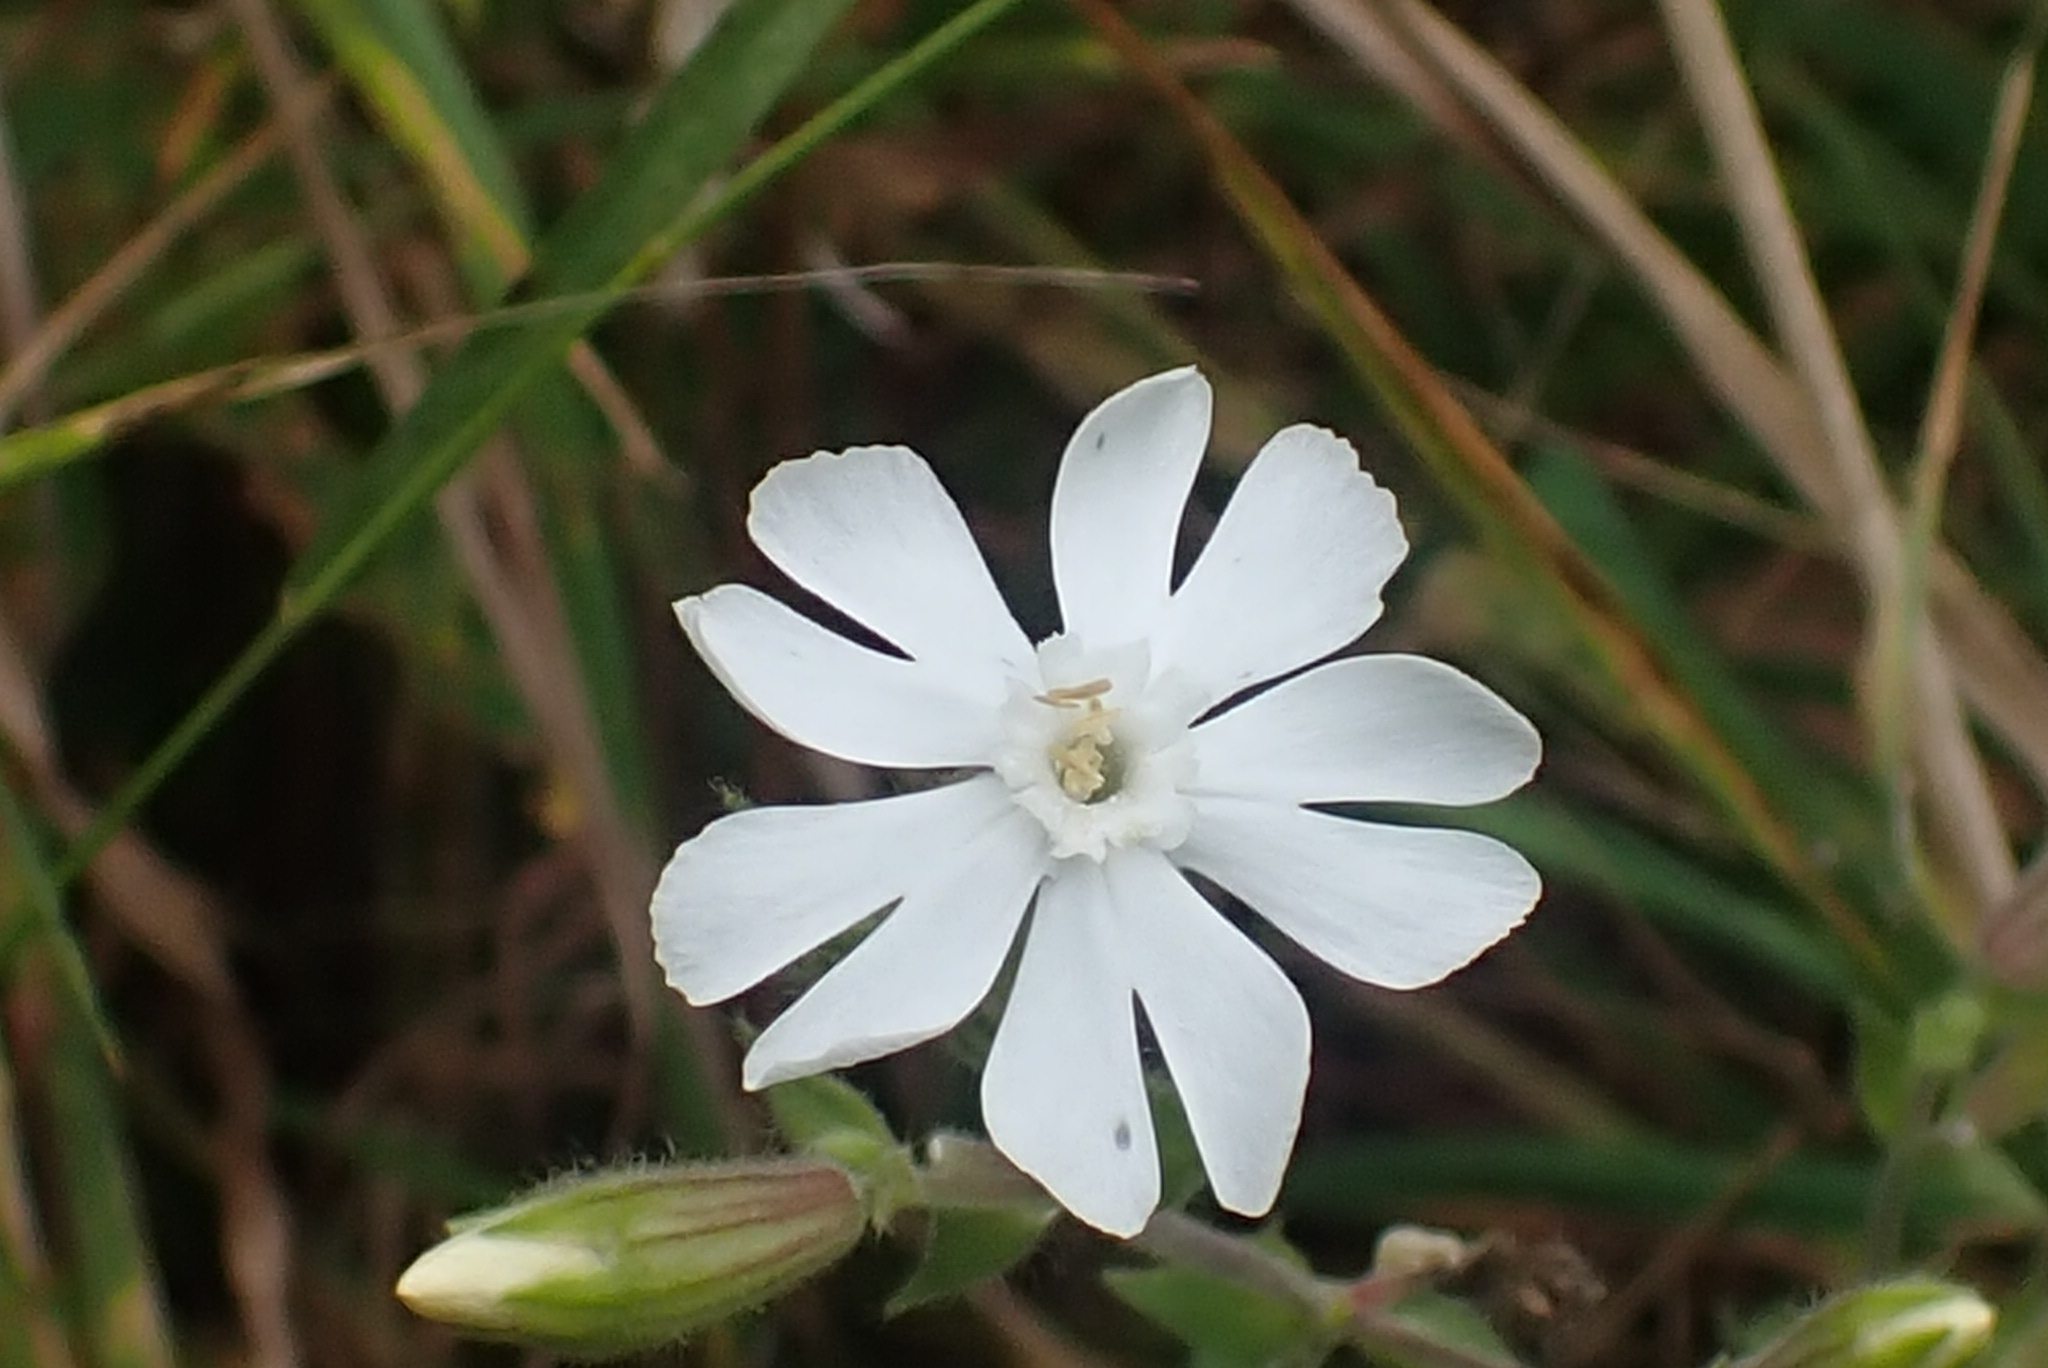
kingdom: Plantae
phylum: Tracheophyta
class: Magnoliopsida
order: Caryophyllales
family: Caryophyllaceae
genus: Silene
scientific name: Silene latifolia
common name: White campion
